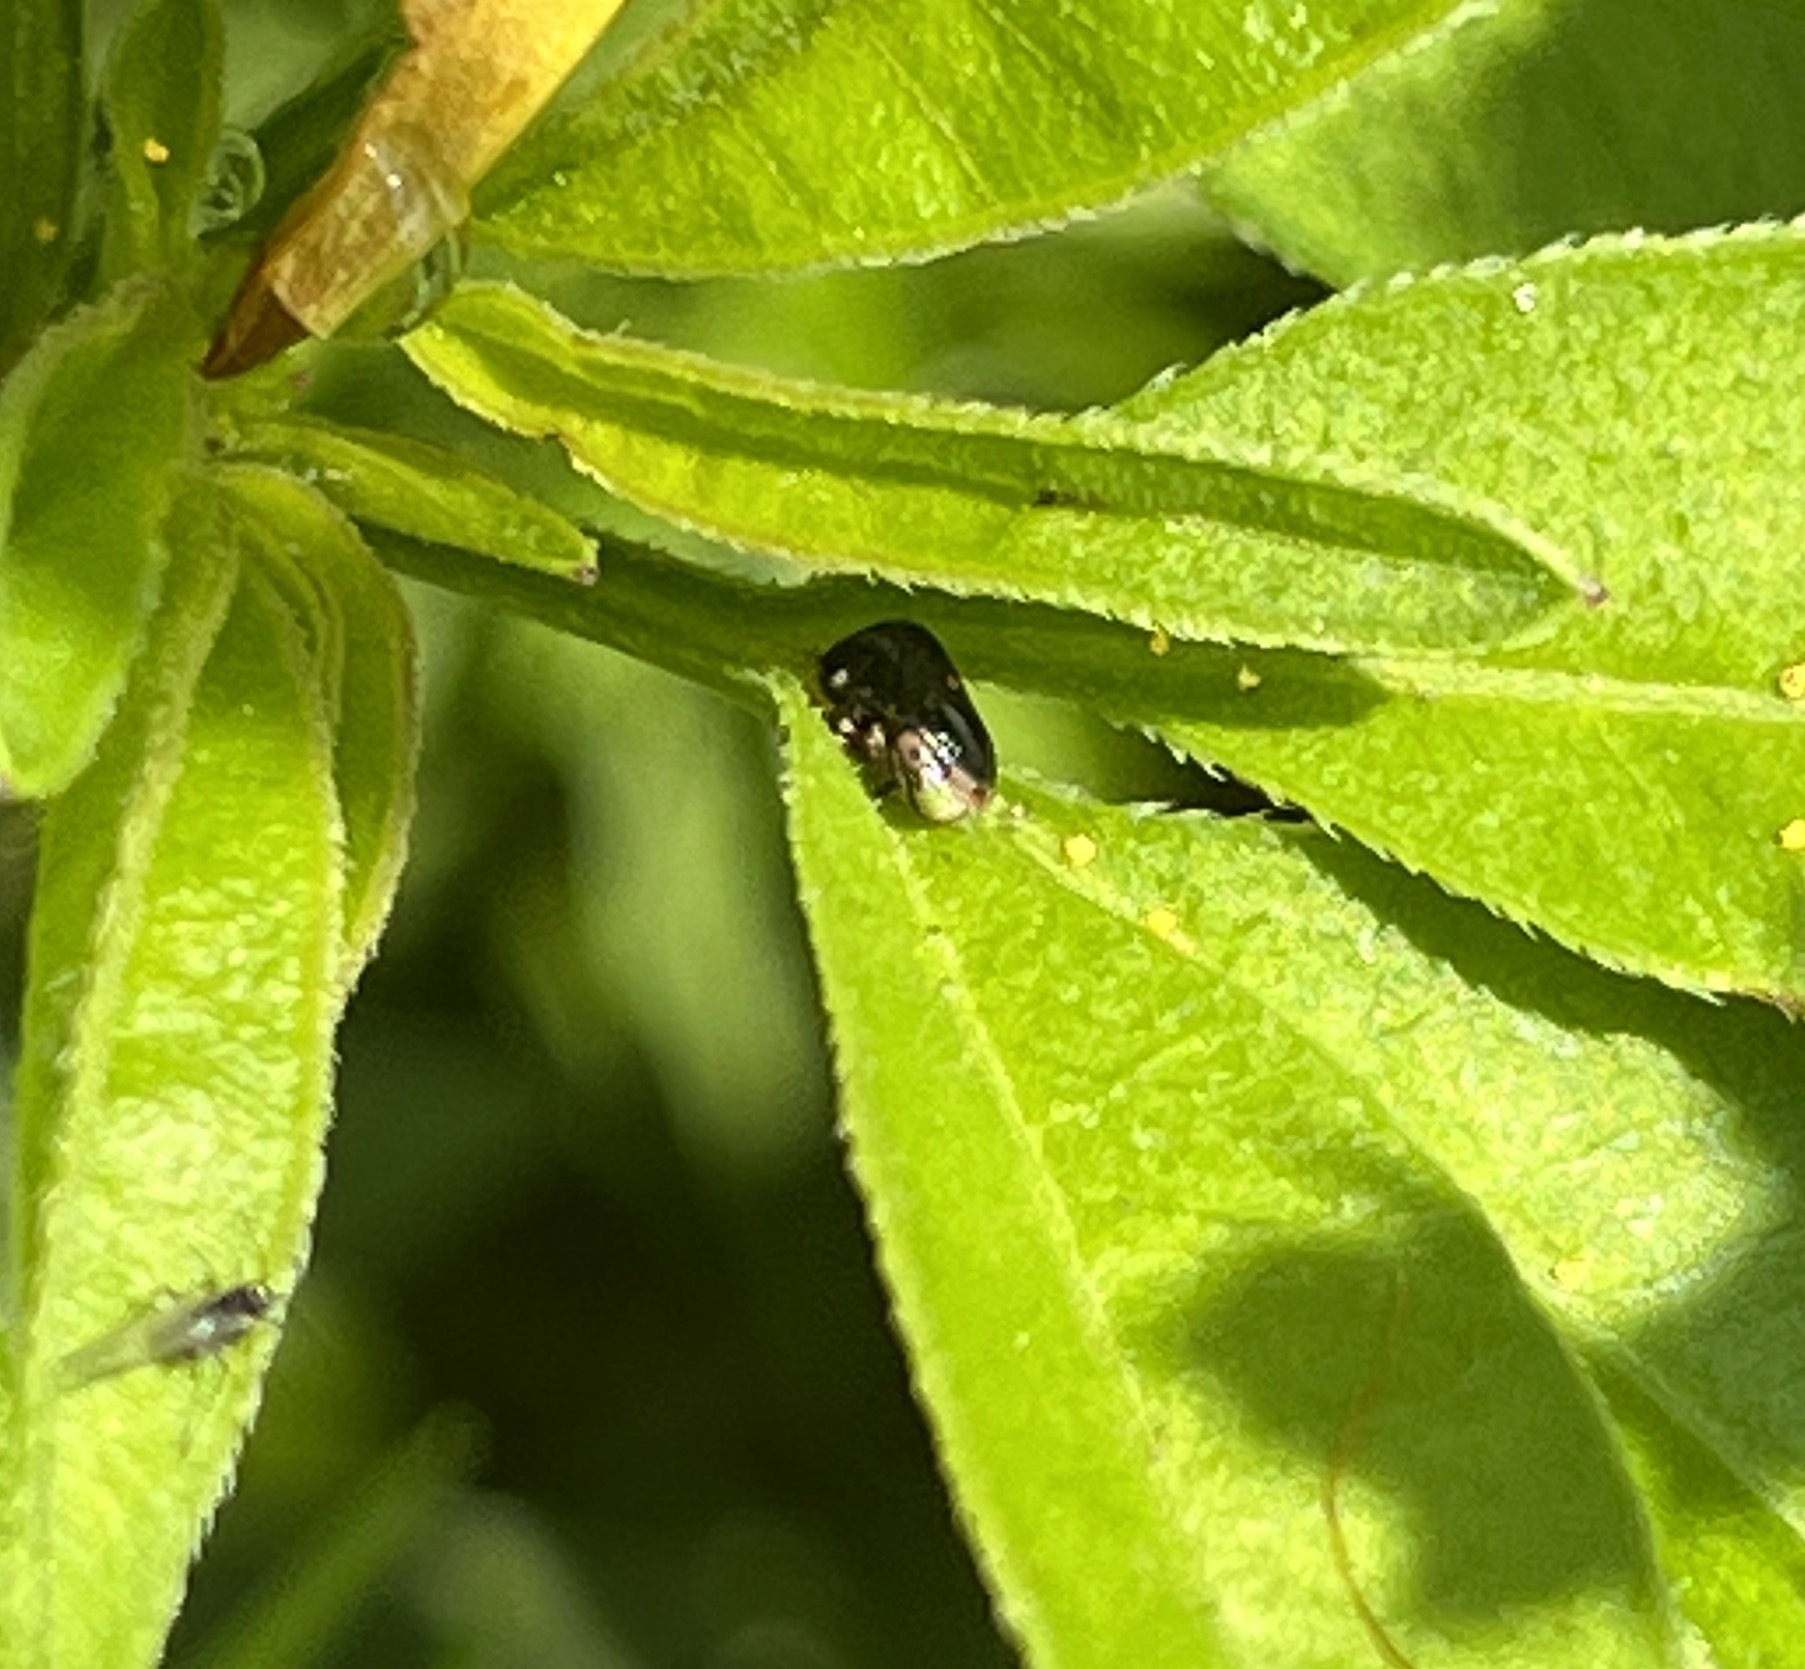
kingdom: Animalia
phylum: Arthropoda
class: Insecta
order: Hemiptera
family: Clastopteridae
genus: Clastoptera
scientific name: Clastoptera xanthocephala
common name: Sunflower spittlebug
